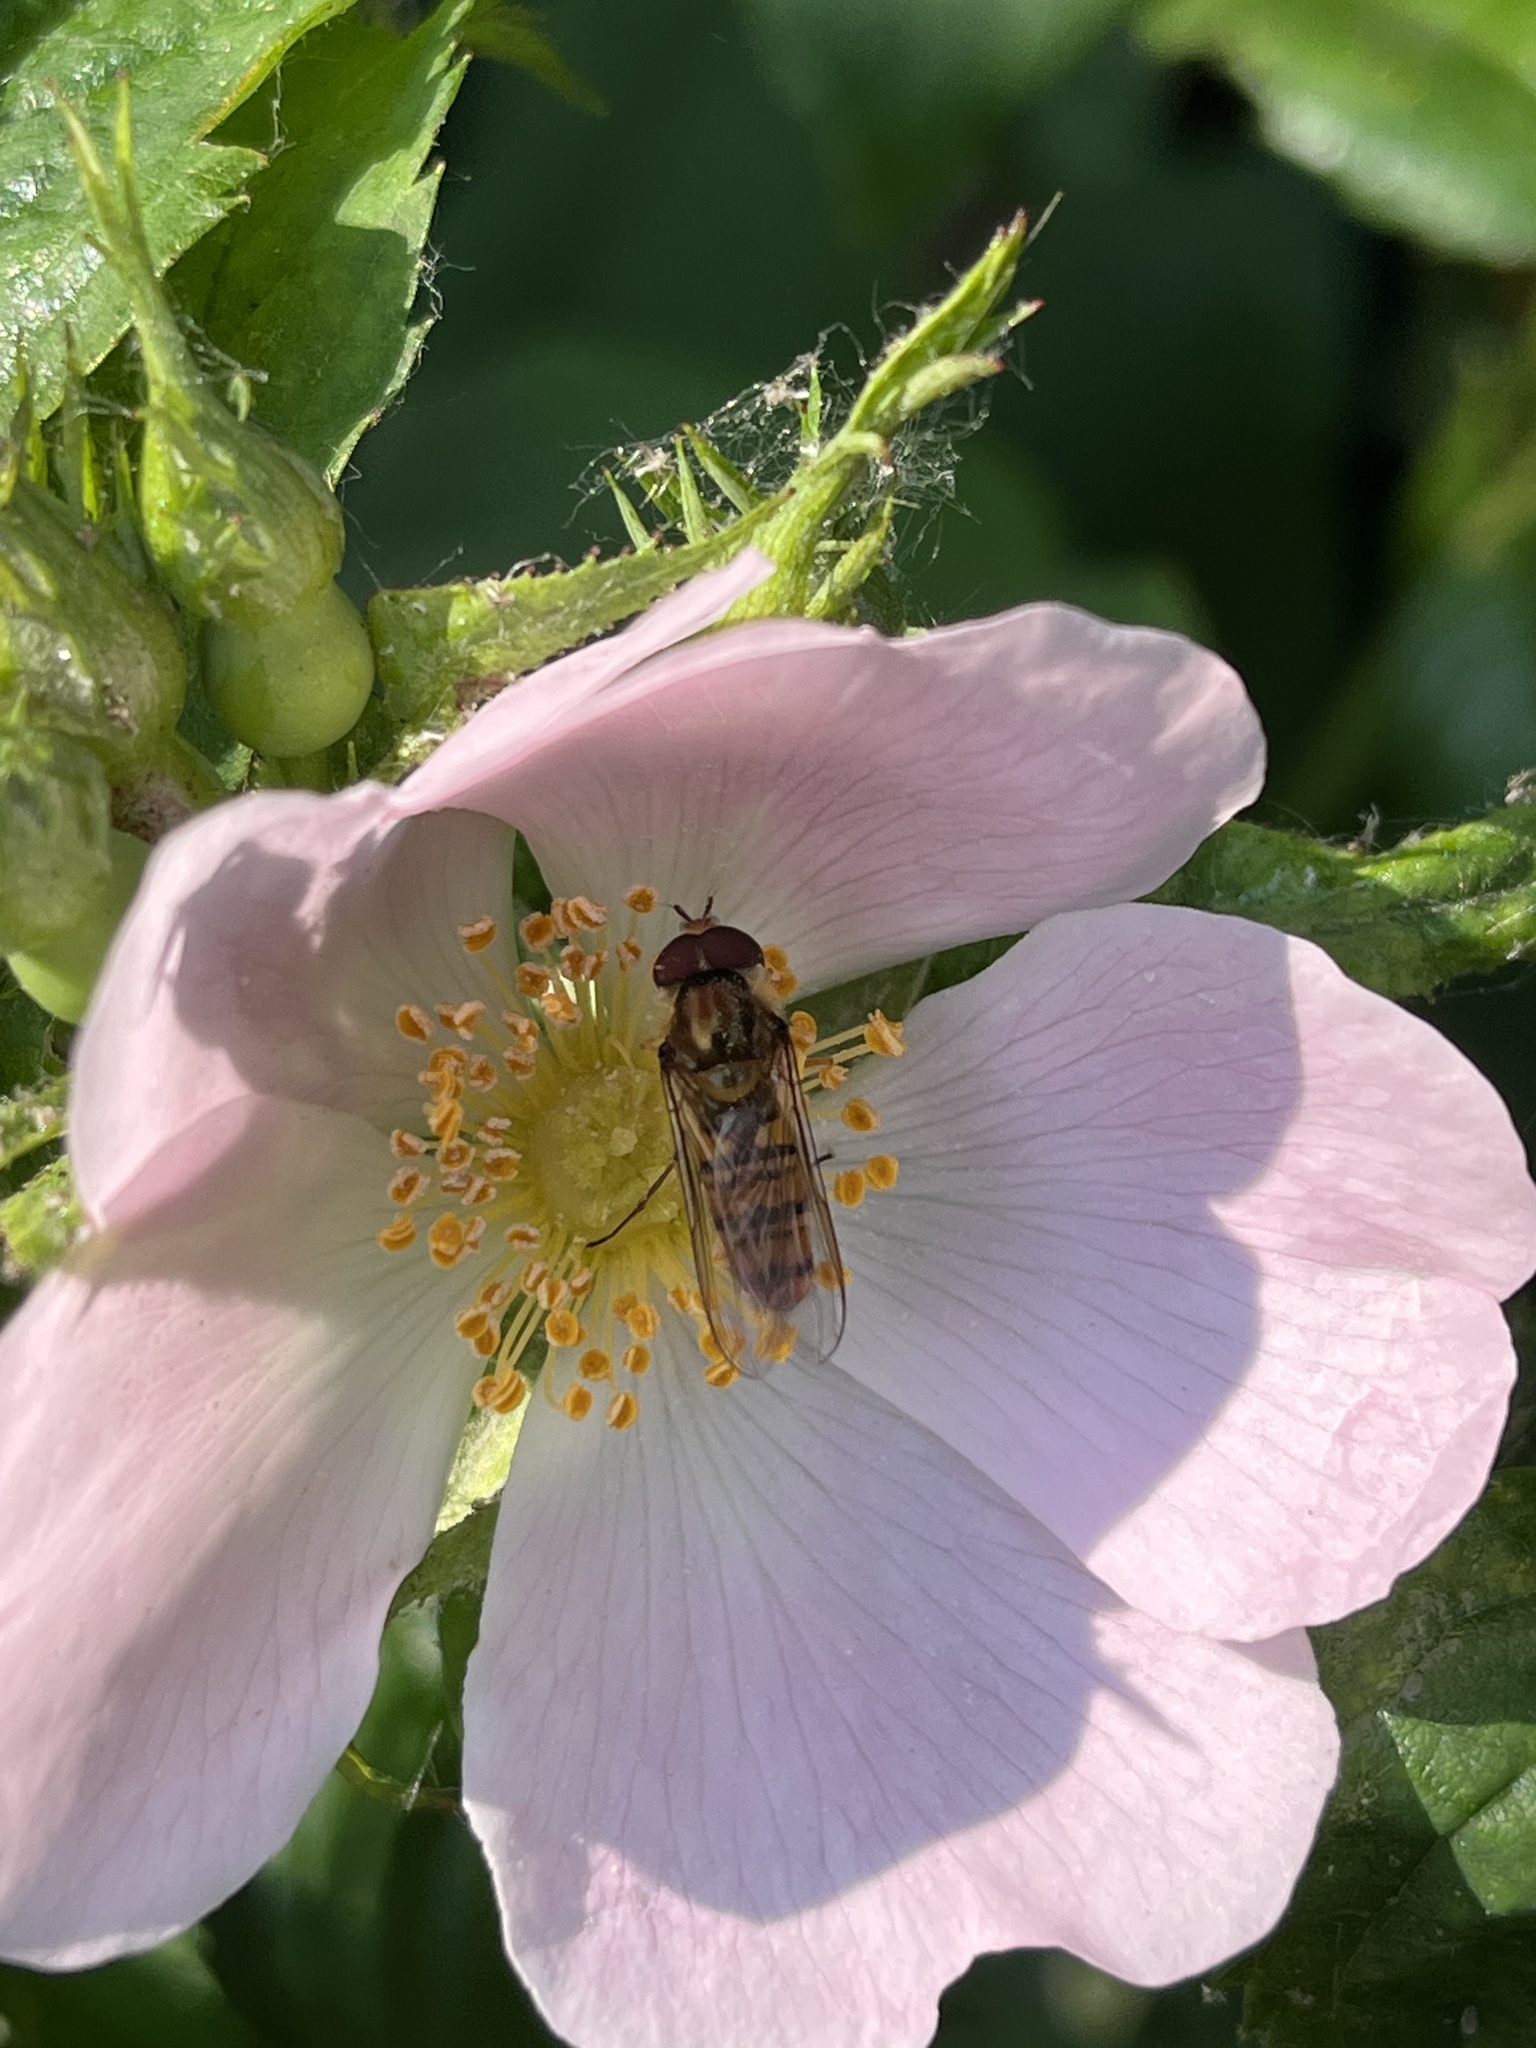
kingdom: Animalia
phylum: Arthropoda
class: Insecta
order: Diptera
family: Syrphidae
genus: Episyrphus
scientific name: Episyrphus balteatus
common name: Marmalade hoverfly
